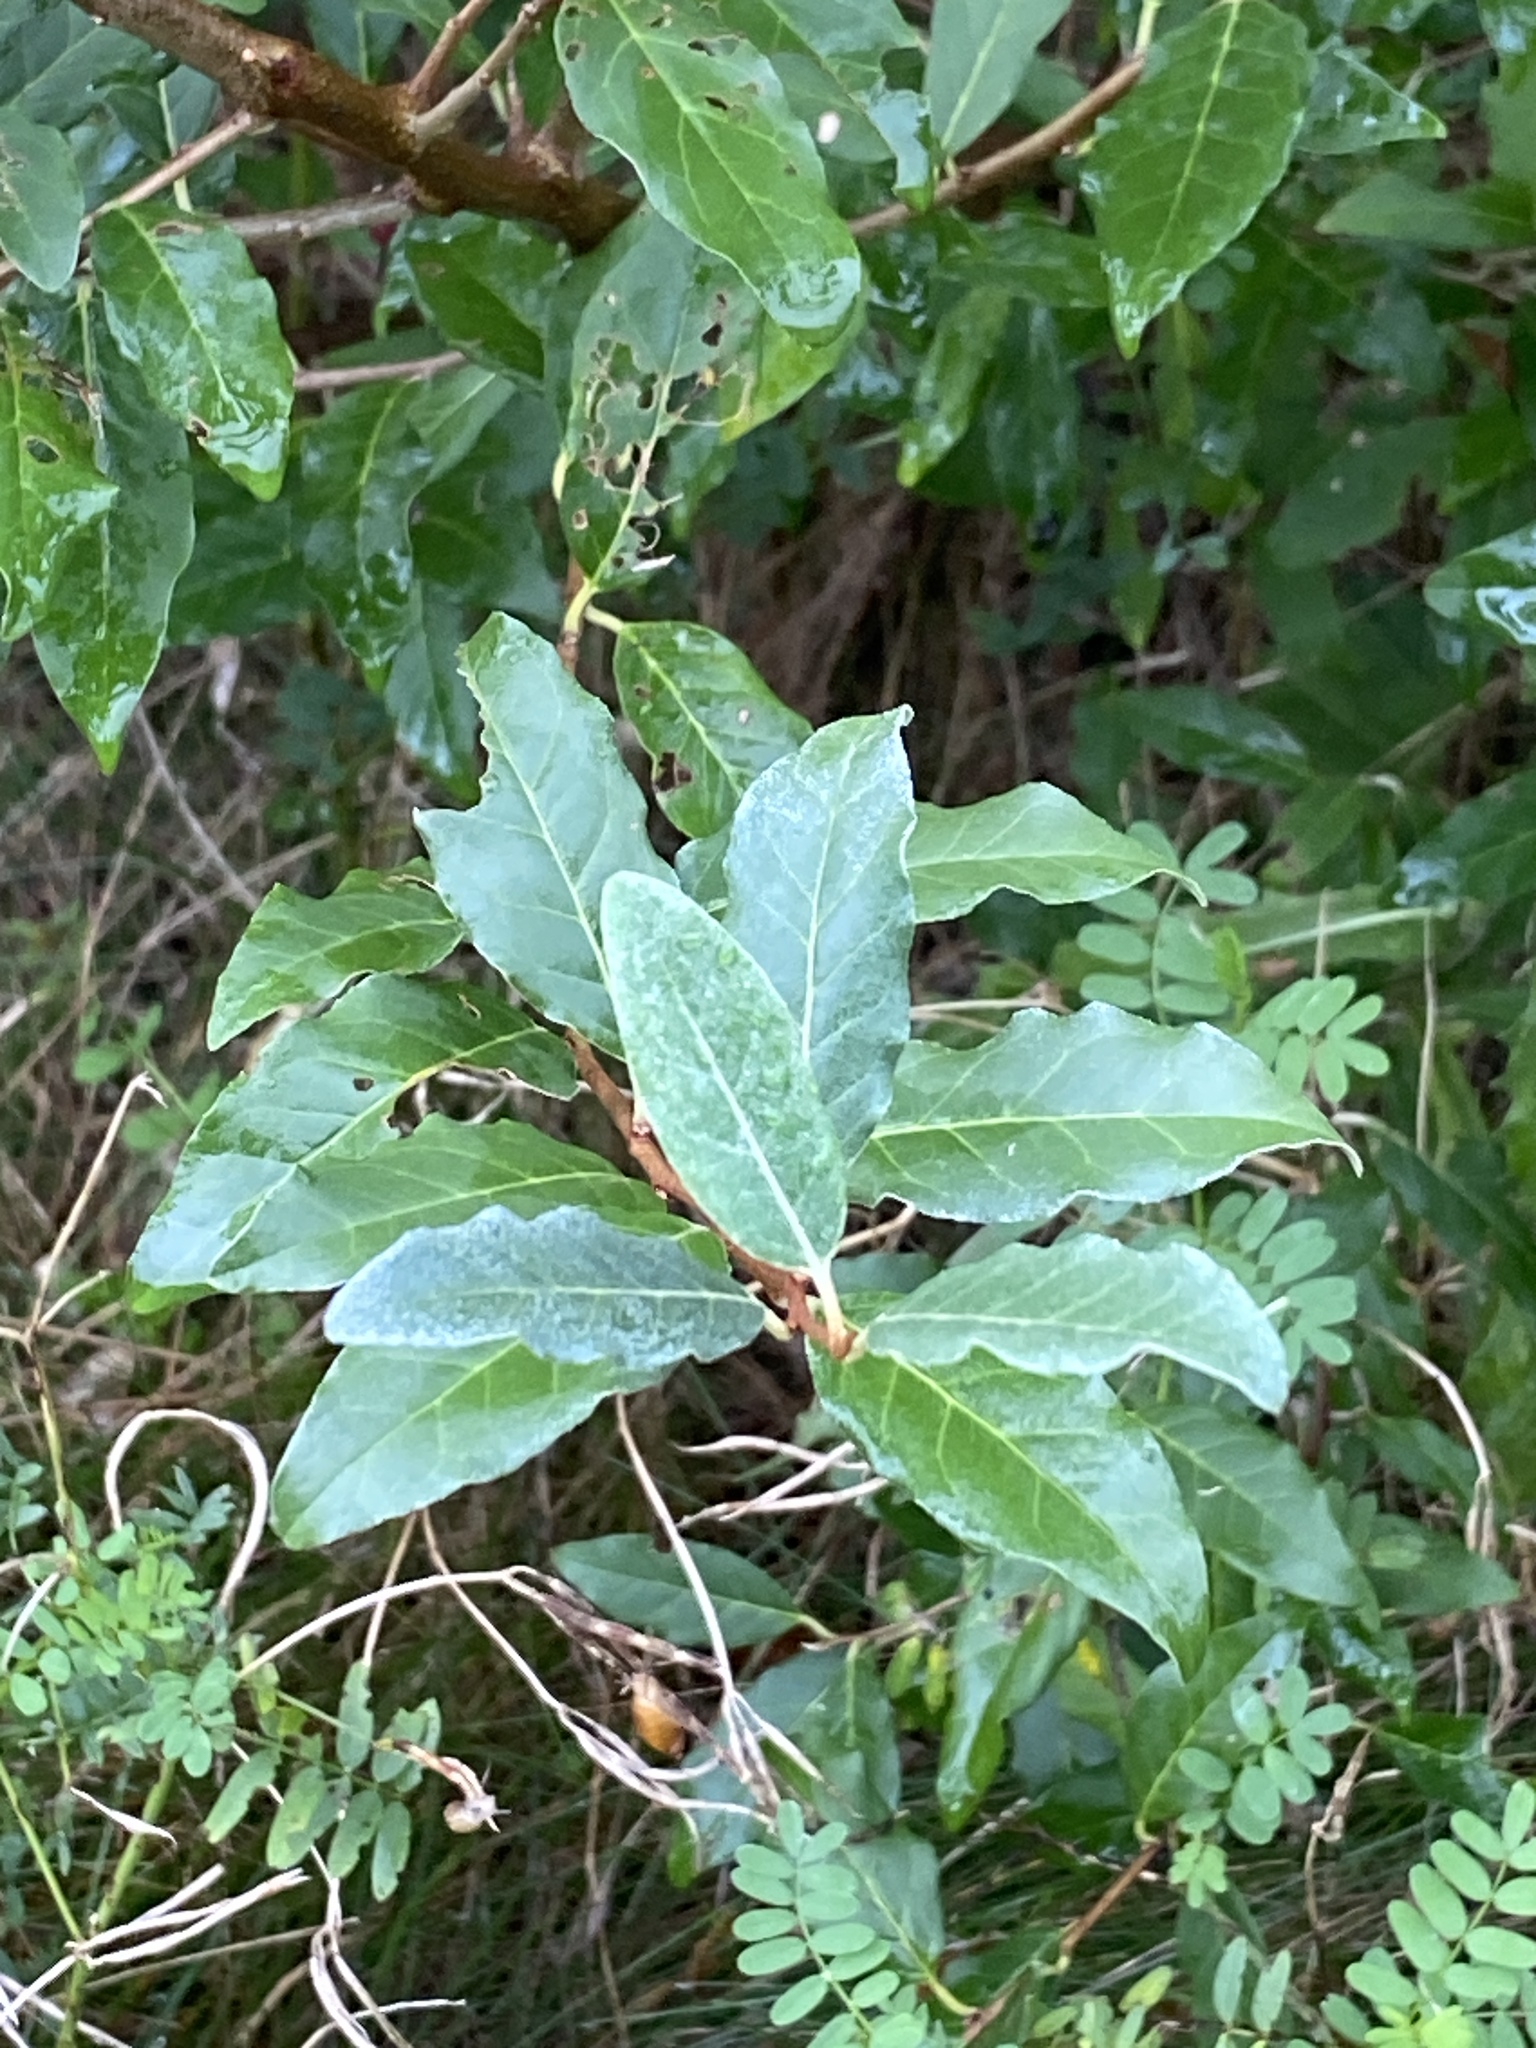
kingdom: Plantae
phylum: Tracheophyta
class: Magnoliopsida
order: Rosales
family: Elaeagnaceae
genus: Elaeagnus
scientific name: Elaeagnus umbellata
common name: Autumn olive
